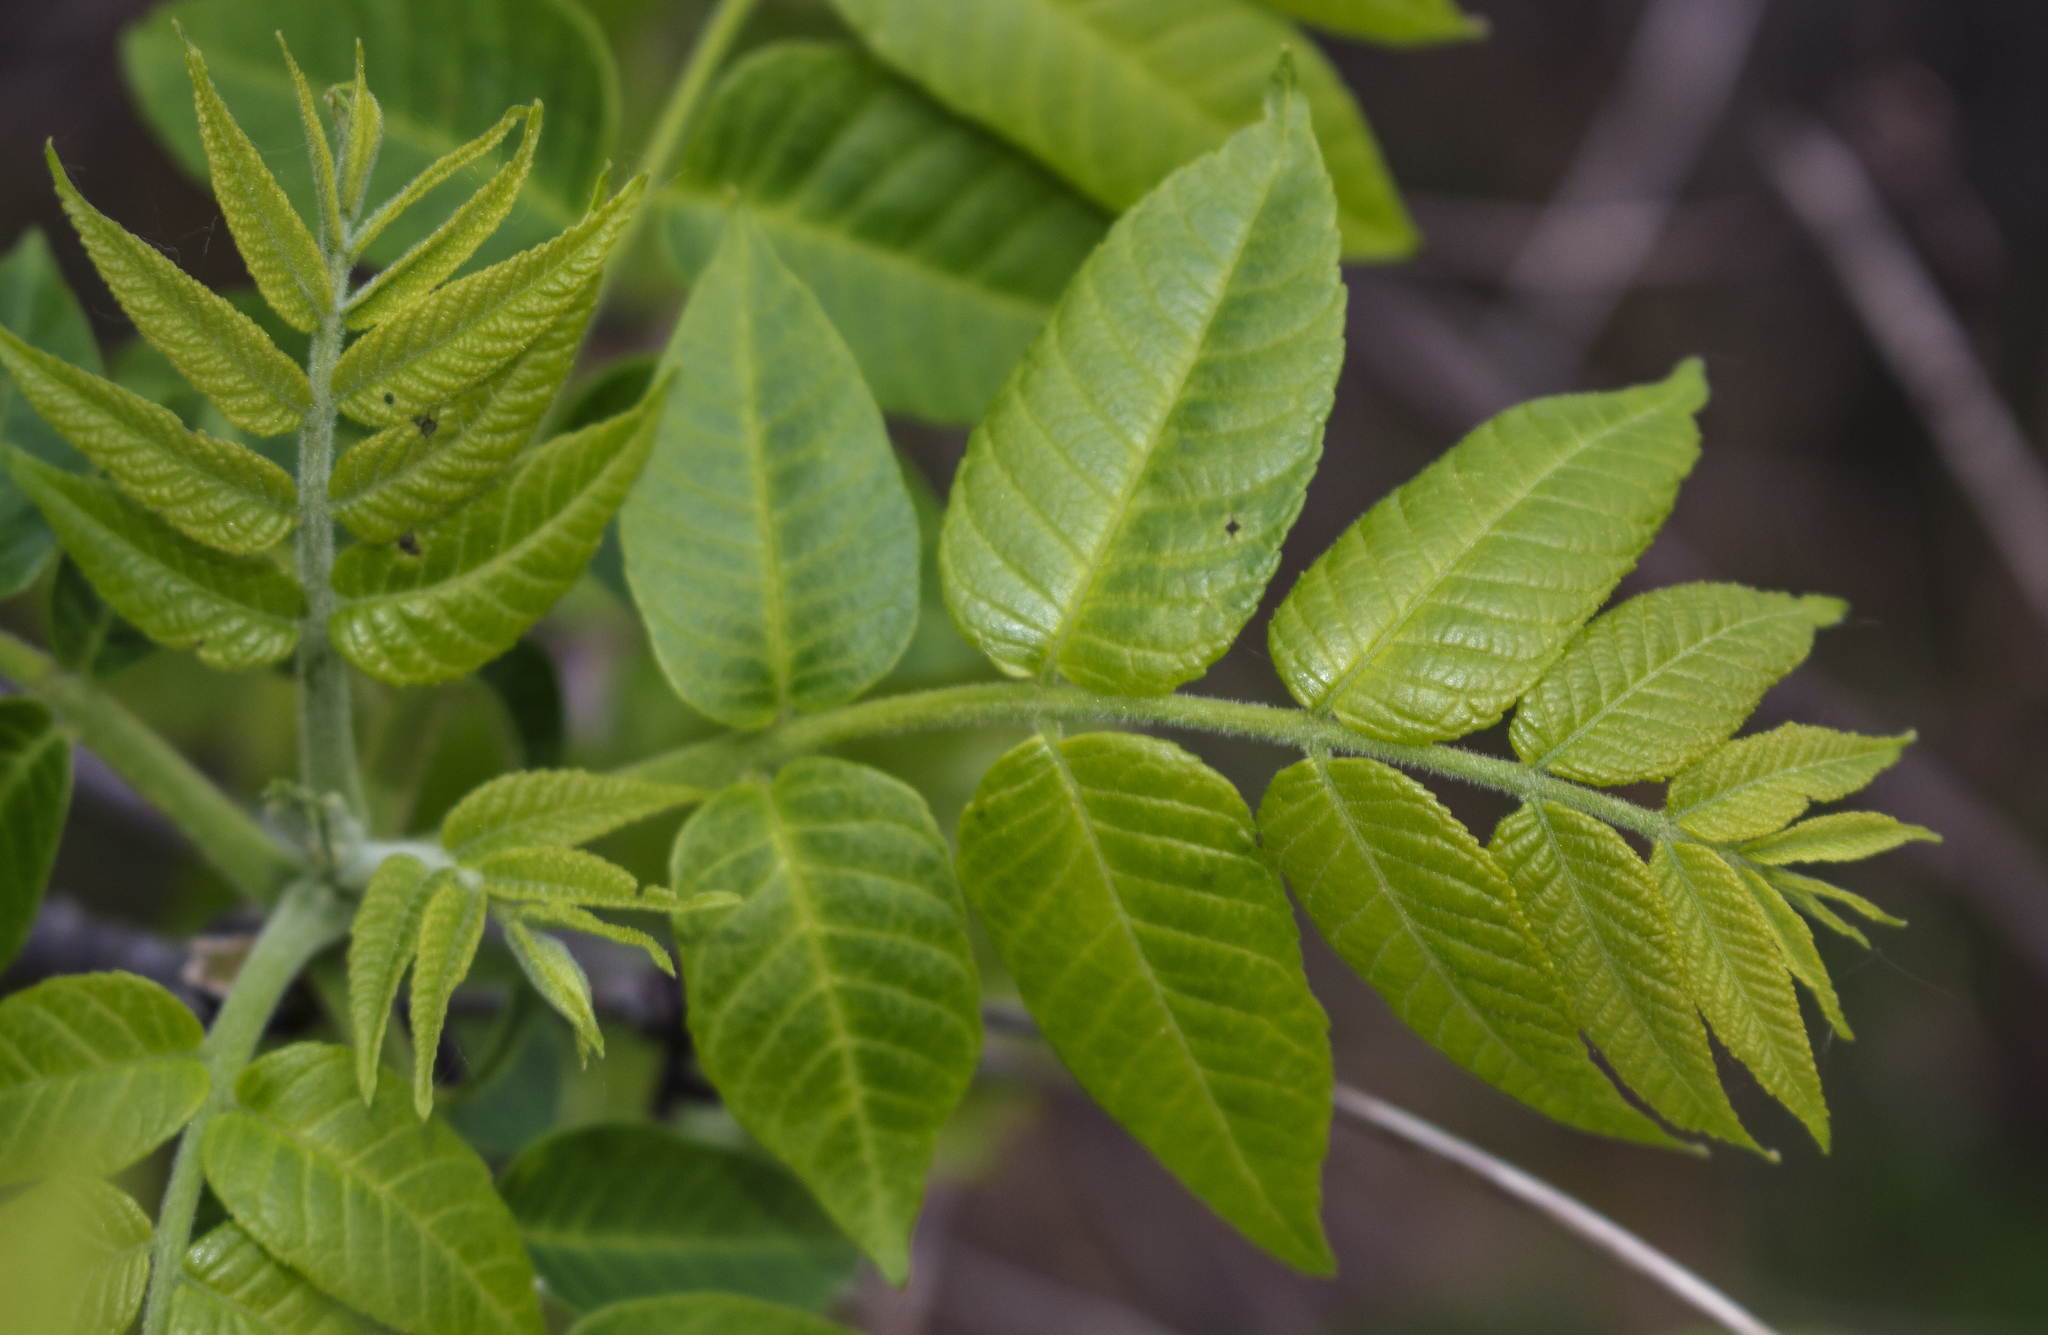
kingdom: Plantae
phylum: Tracheophyta
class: Magnoliopsida
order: Fagales
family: Juglandaceae
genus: Juglans
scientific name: Juglans nigra
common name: Black walnut
